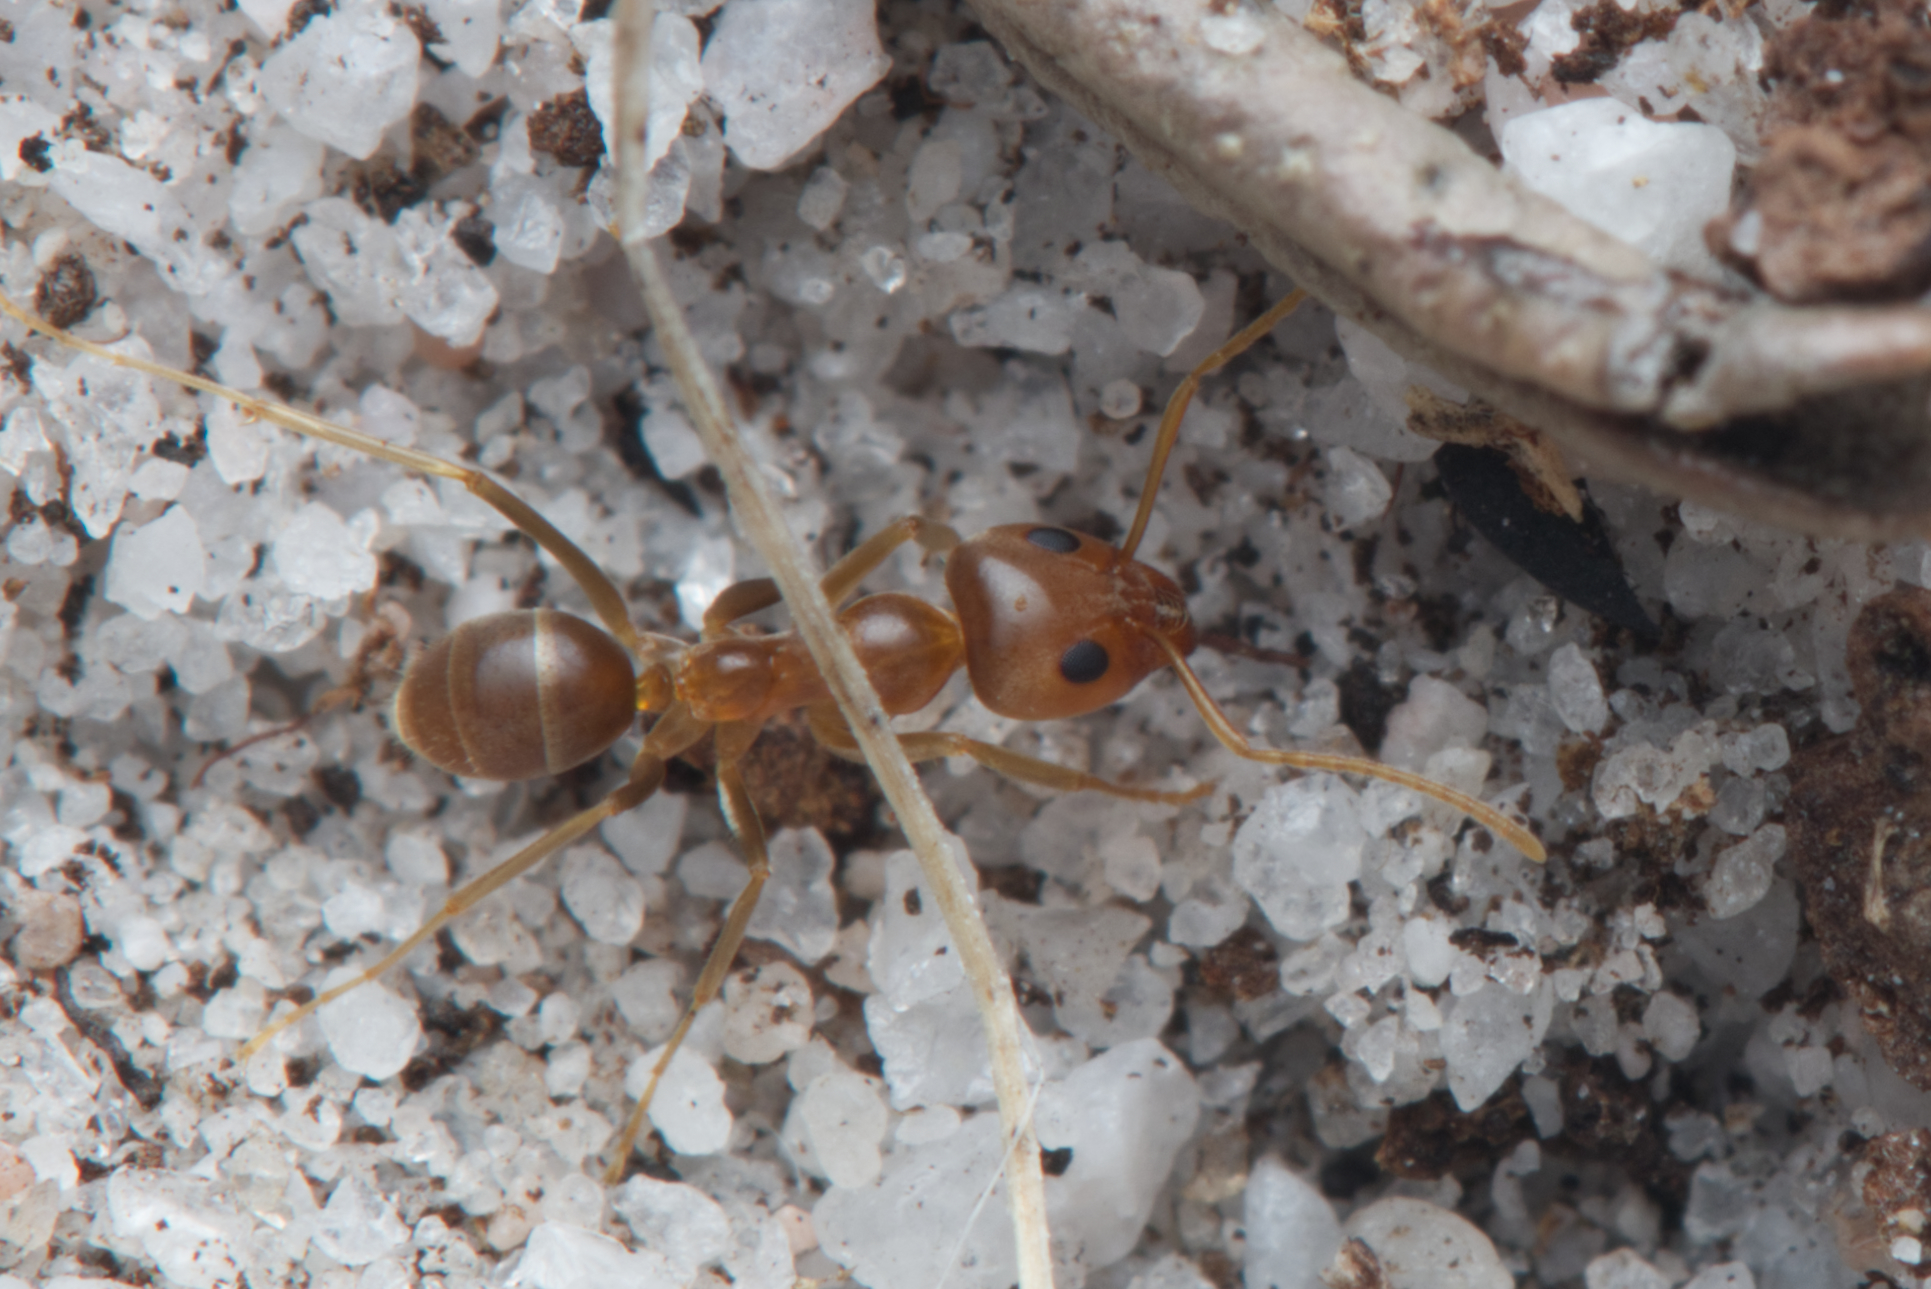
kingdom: Animalia
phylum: Arthropoda
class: Insecta
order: Hymenoptera
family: Formicidae
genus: Iridomyrmex
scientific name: Iridomyrmex pallidus
